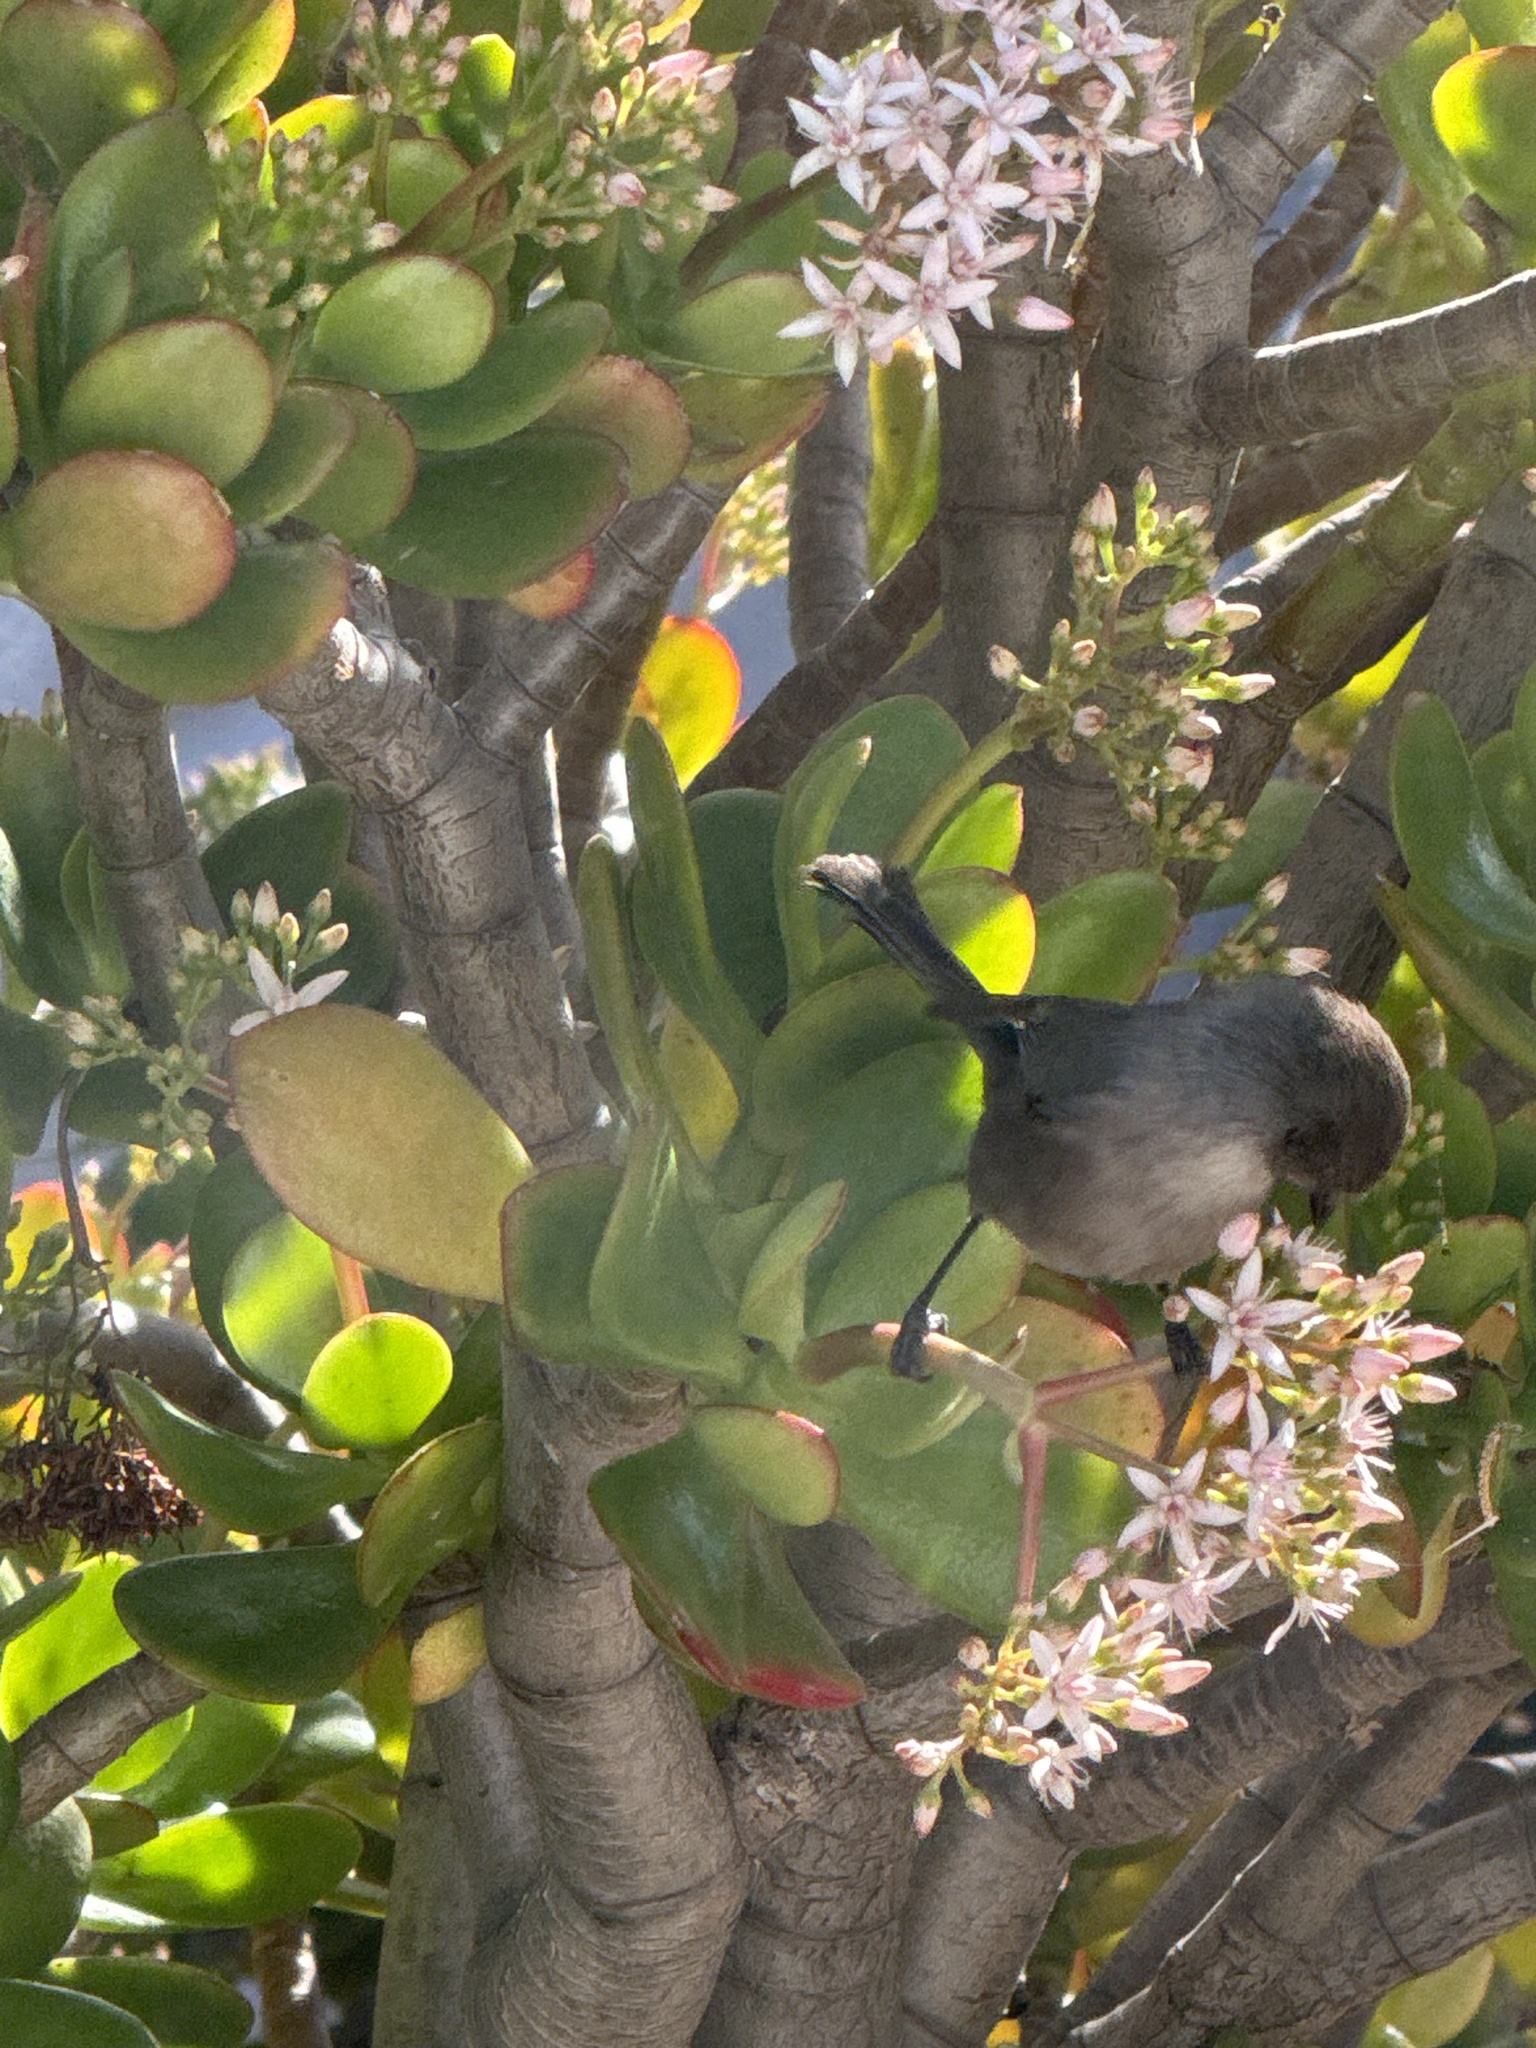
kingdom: Animalia
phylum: Chordata
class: Aves
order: Passeriformes
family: Aegithalidae
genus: Psaltriparus
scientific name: Psaltriparus minimus
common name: American bushtit
